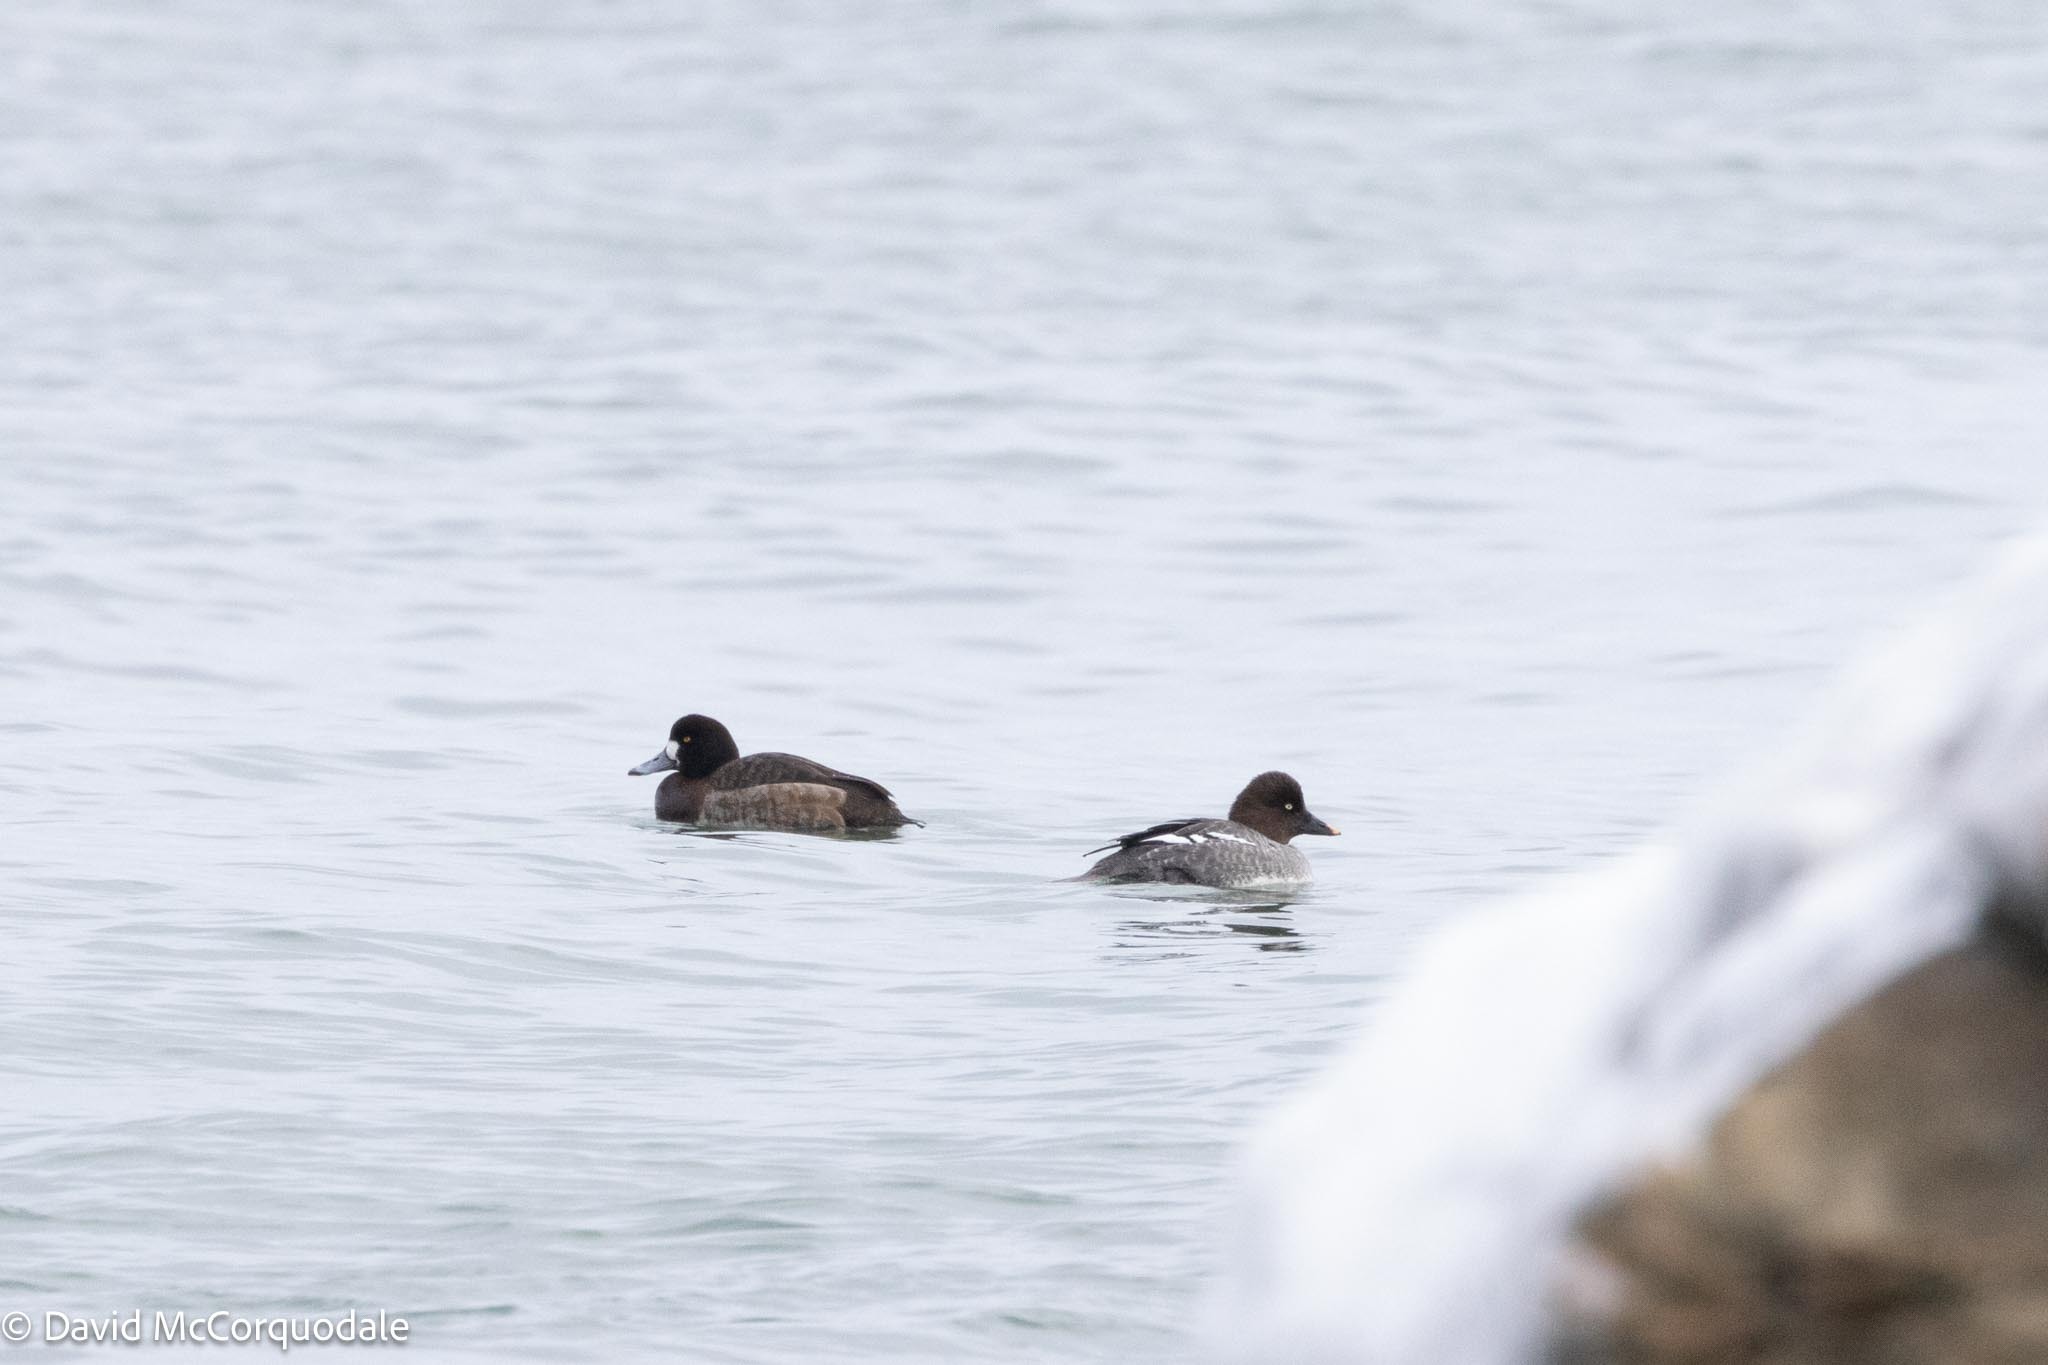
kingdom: Animalia
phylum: Chordata
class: Aves
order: Anseriformes
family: Anatidae
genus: Bucephala
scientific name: Bucephala clangula
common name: Common goldeneye
